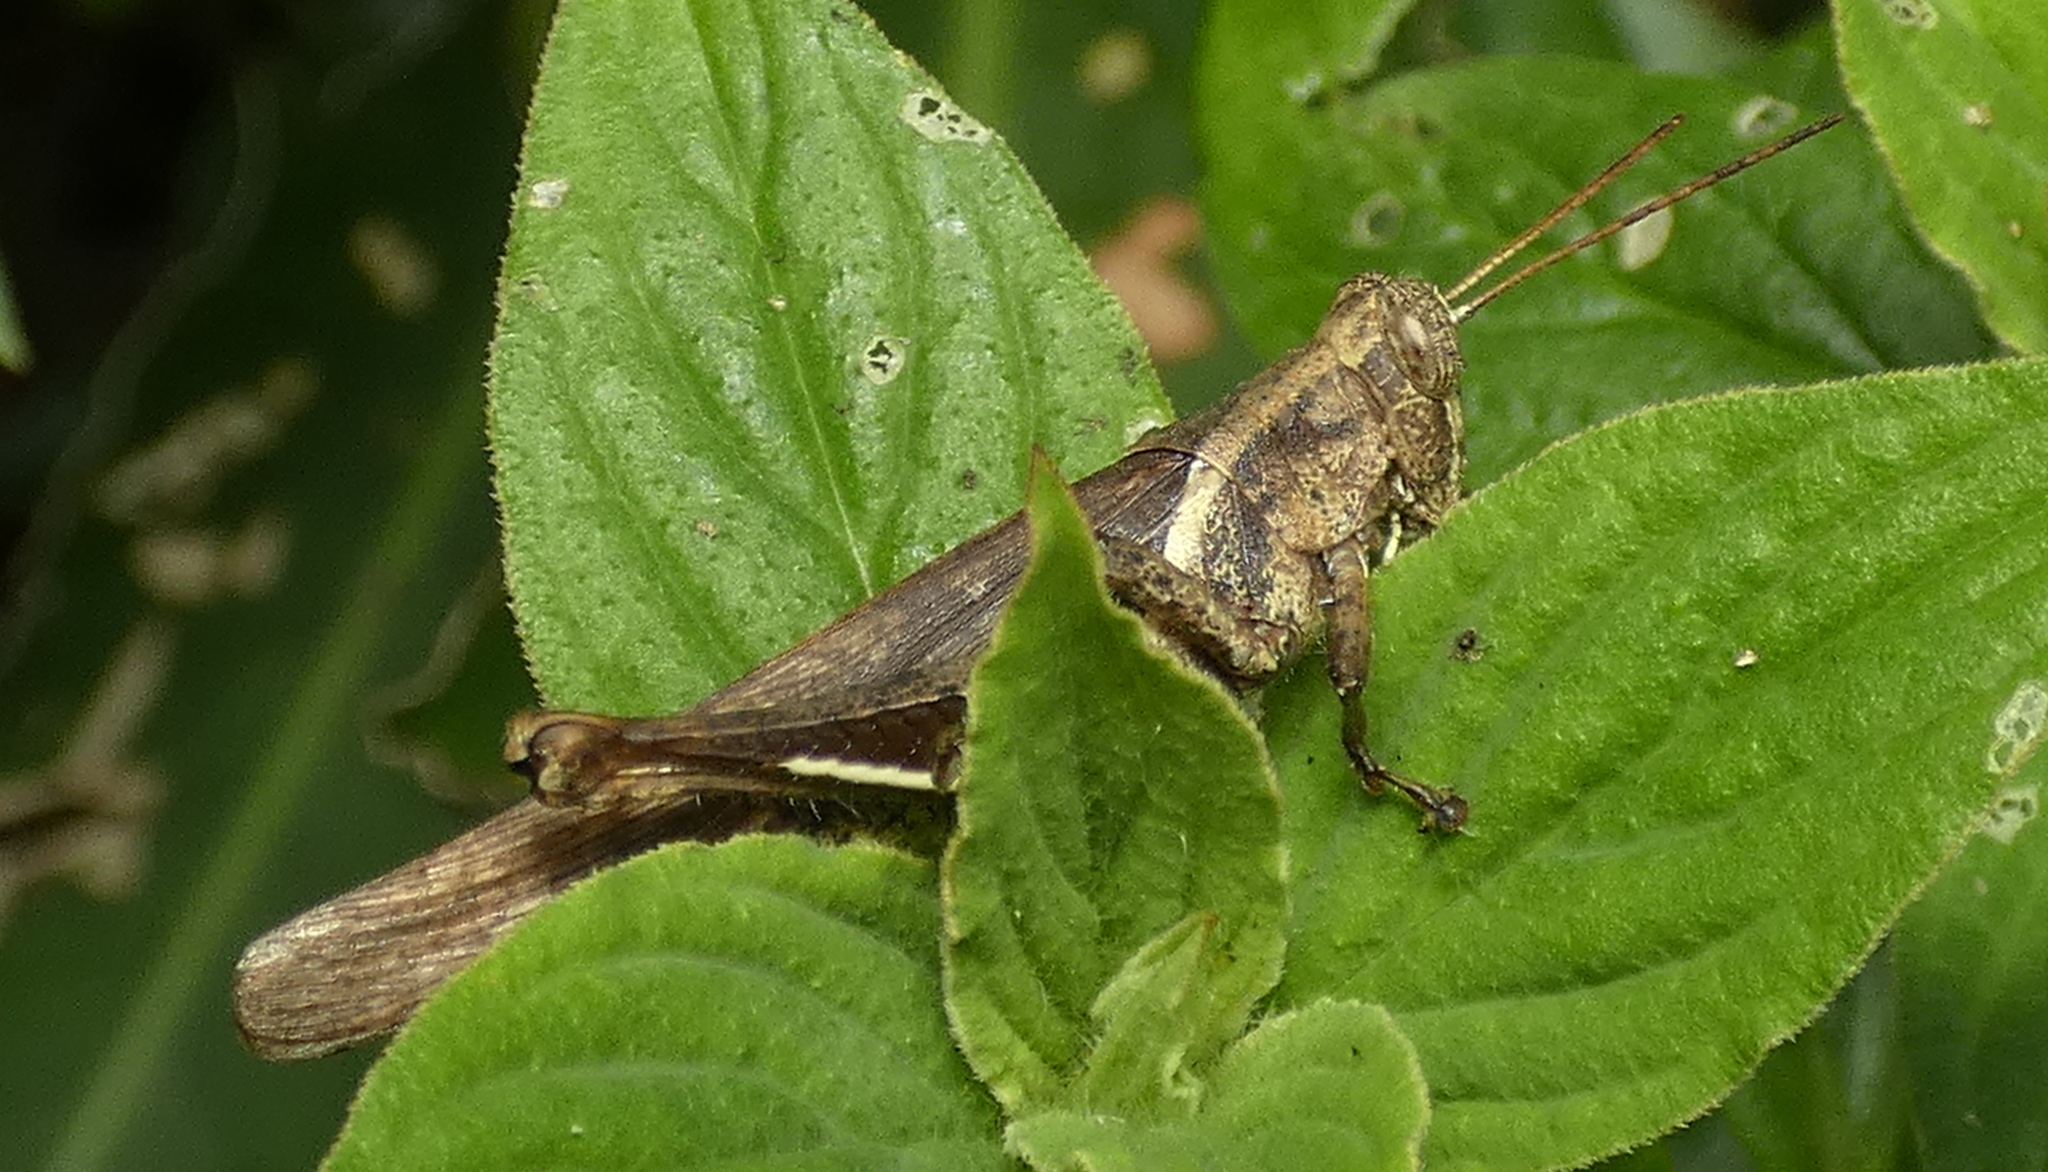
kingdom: Animalia
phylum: Arthropoda
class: Insecta
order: Orthoptera
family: Acrididae
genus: Abracris
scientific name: Abracris flavolineata
